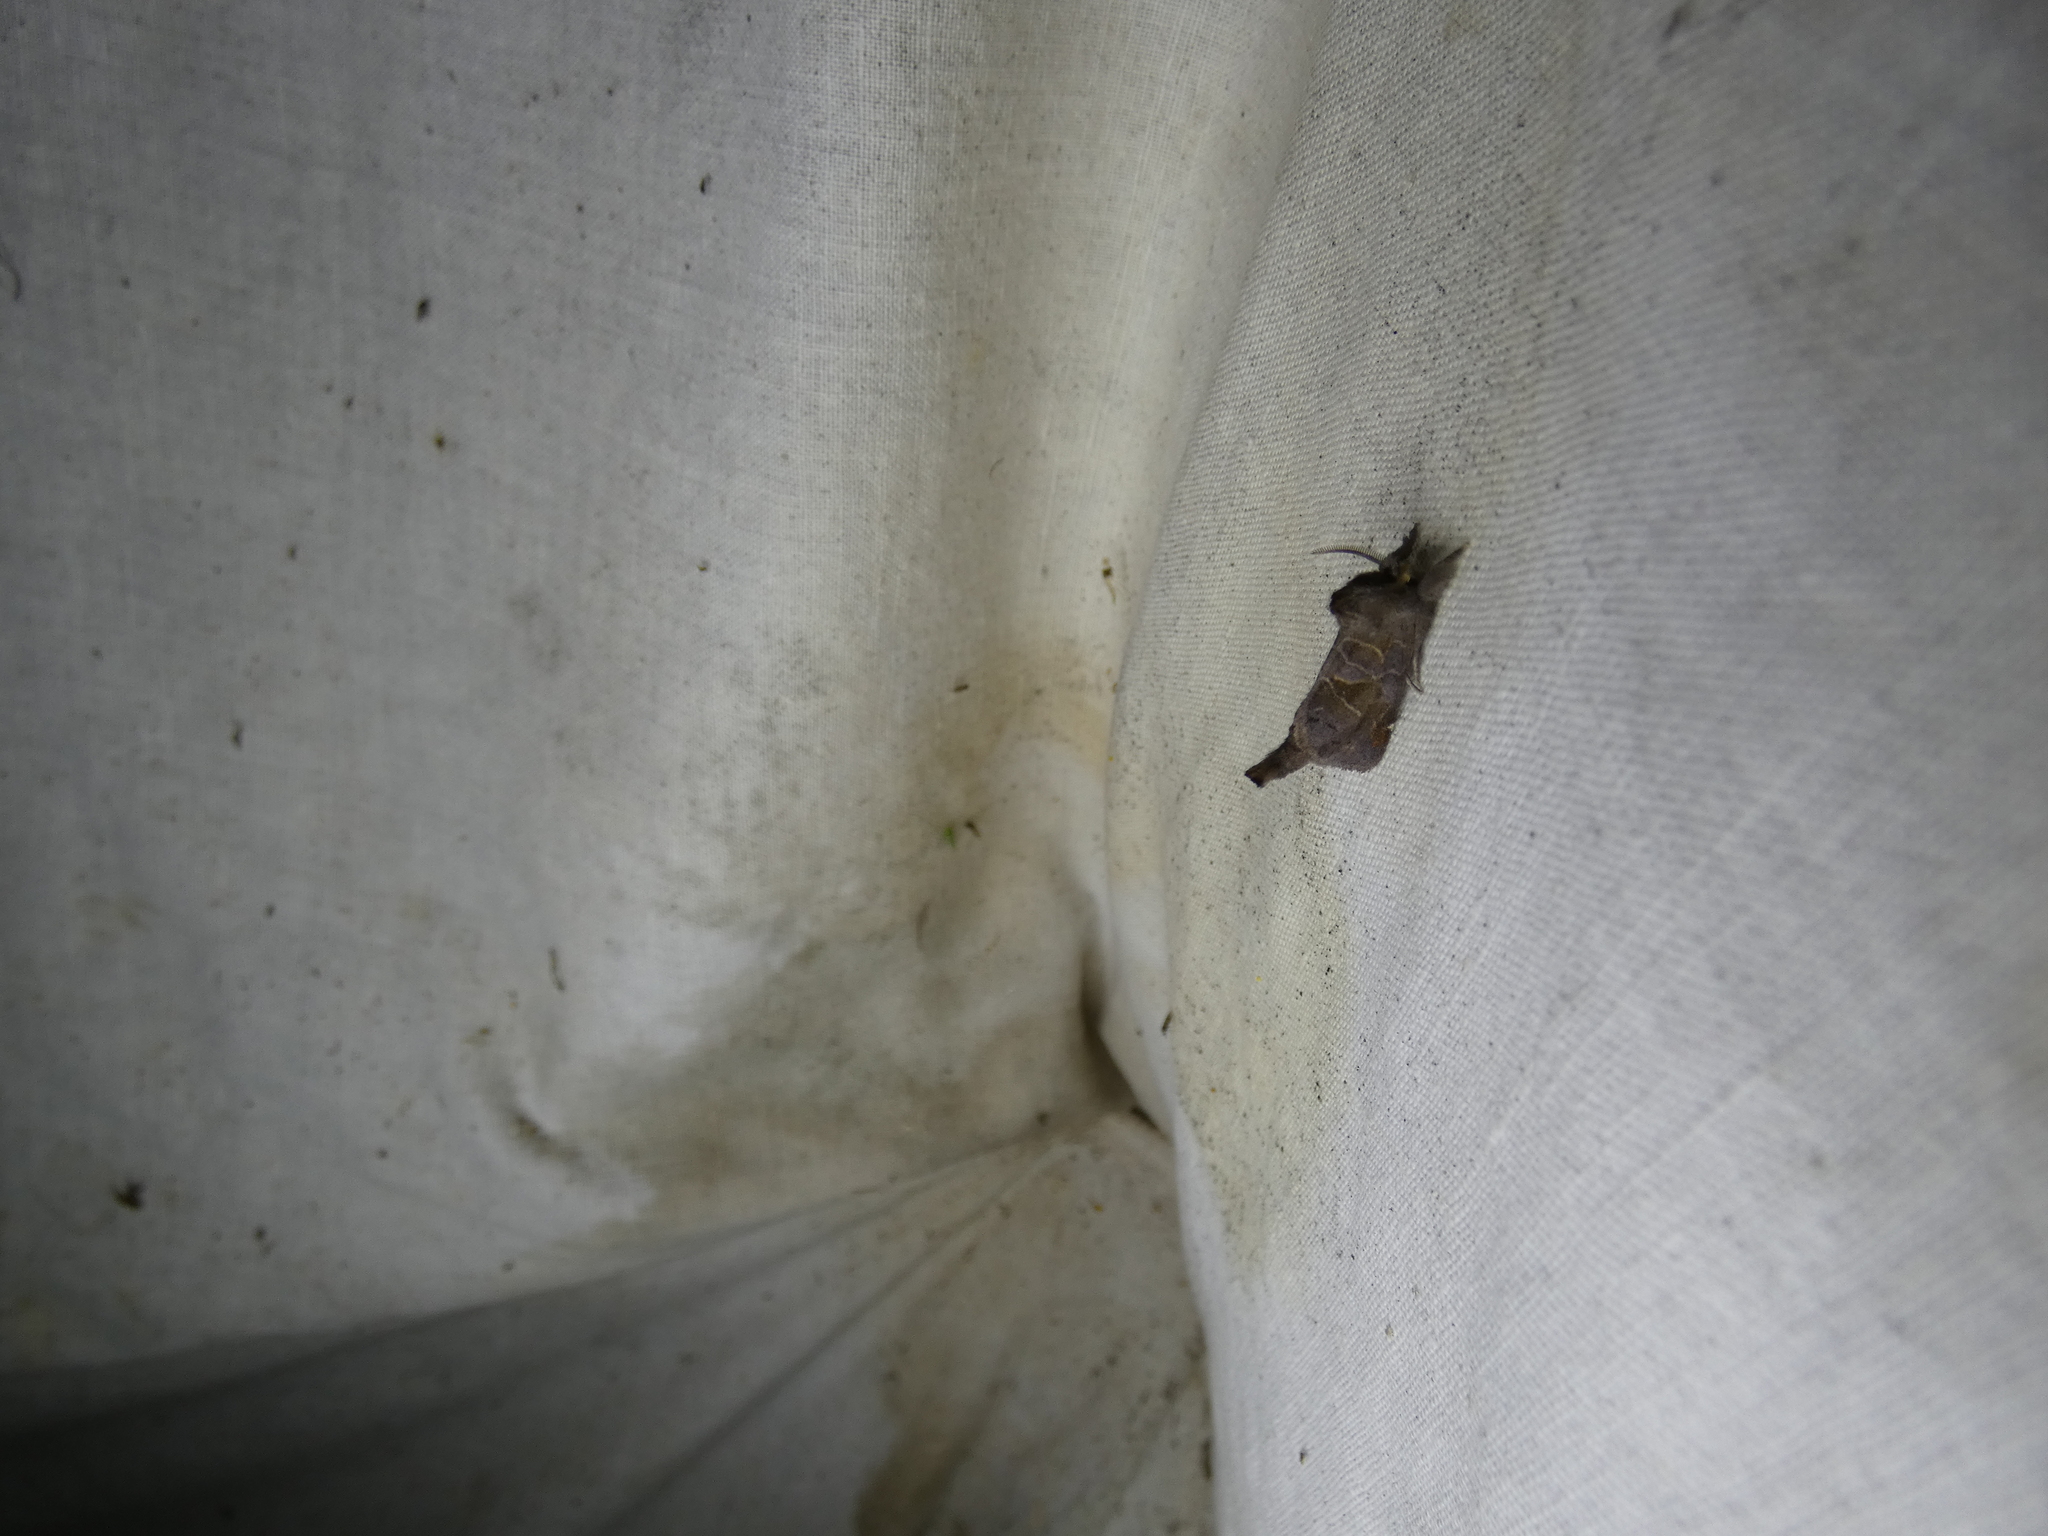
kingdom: Animalia
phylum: Arthropoda
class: Insecta
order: Lepidoptera
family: Notodontidae
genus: Clostera
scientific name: Clostera pigra
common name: Small chocolate-tip
